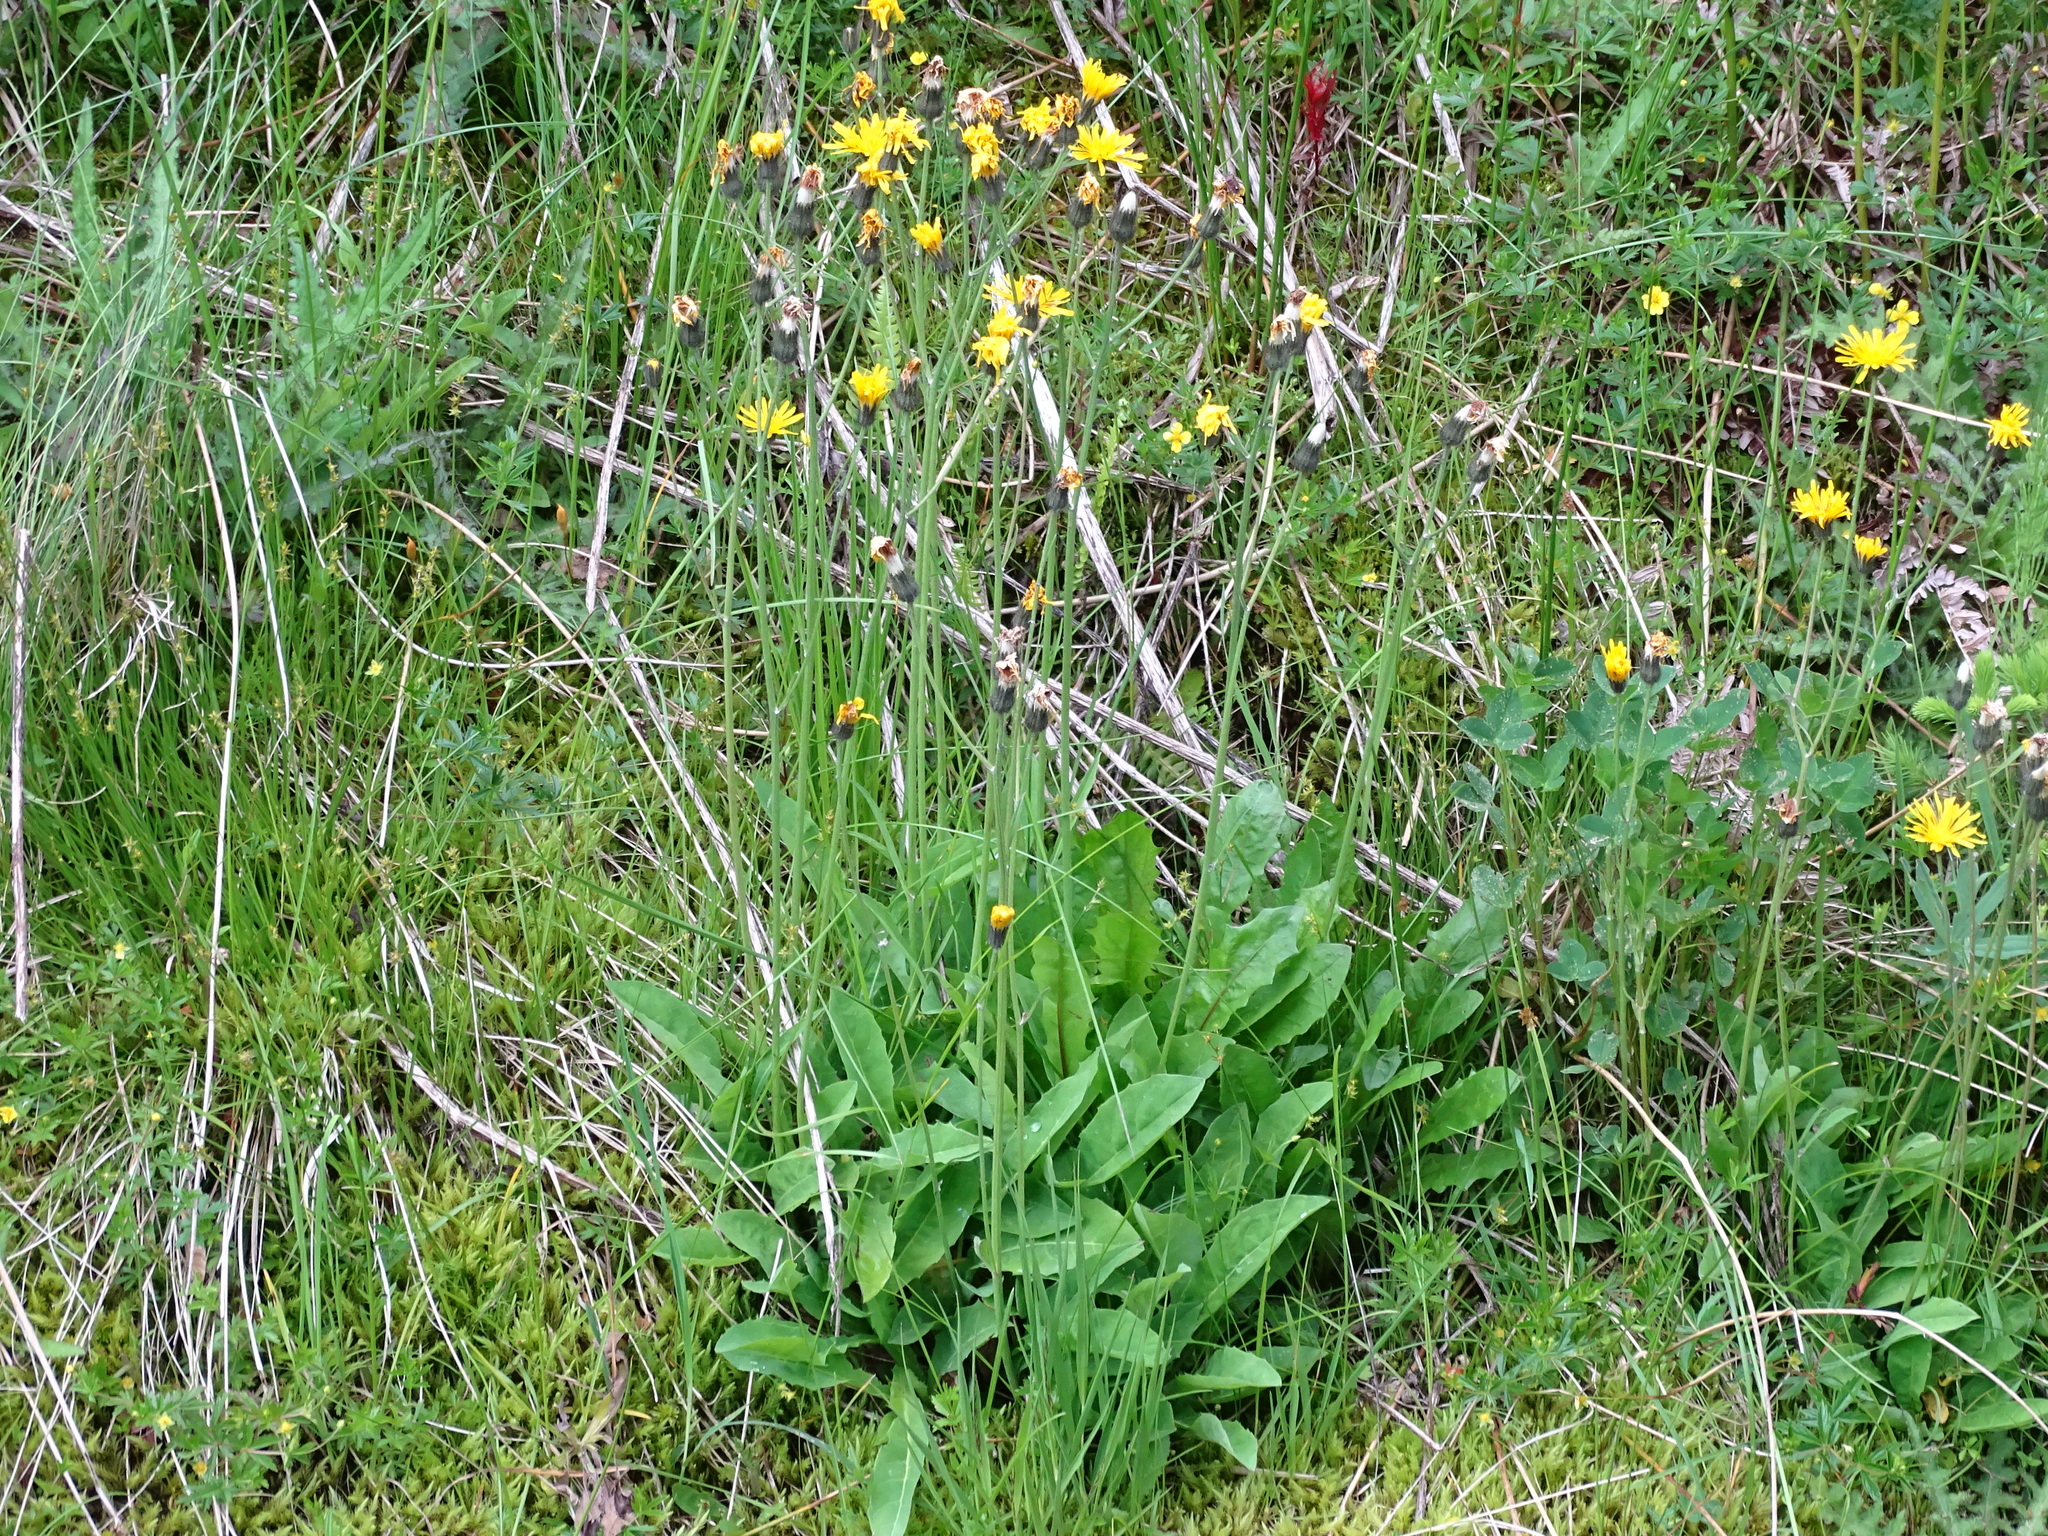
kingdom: Plantae
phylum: Tracheophyta
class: Magnoliopsida
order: Asterales
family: Asteraceae
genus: Willemetia
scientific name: Willemetia stipitata
